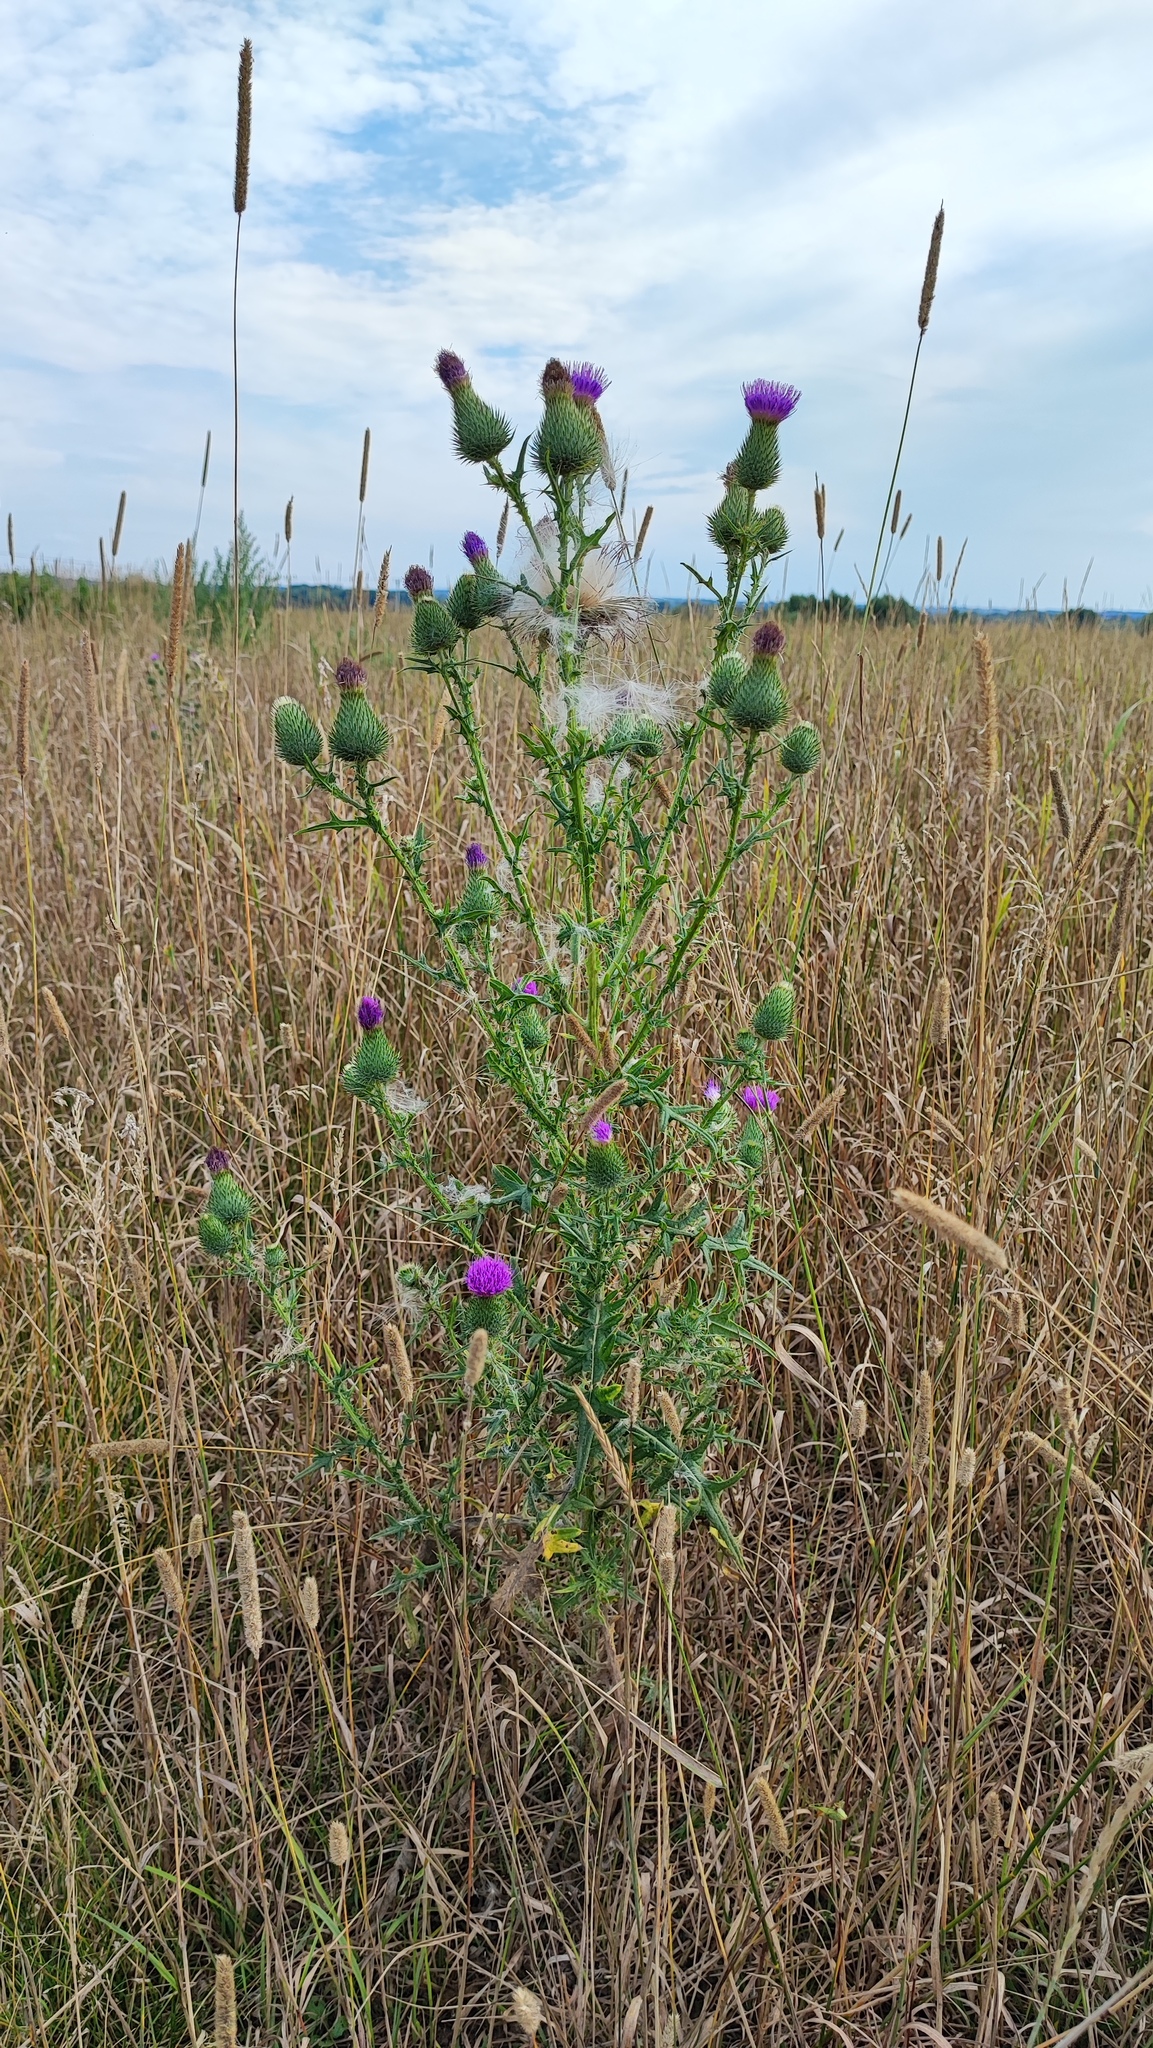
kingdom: Plantae
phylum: Tracheophyta
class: Magnoliopsida
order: Asterales
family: Asteraceae
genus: Cirsium
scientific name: Cirsium vulgare
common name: Bull thistle
